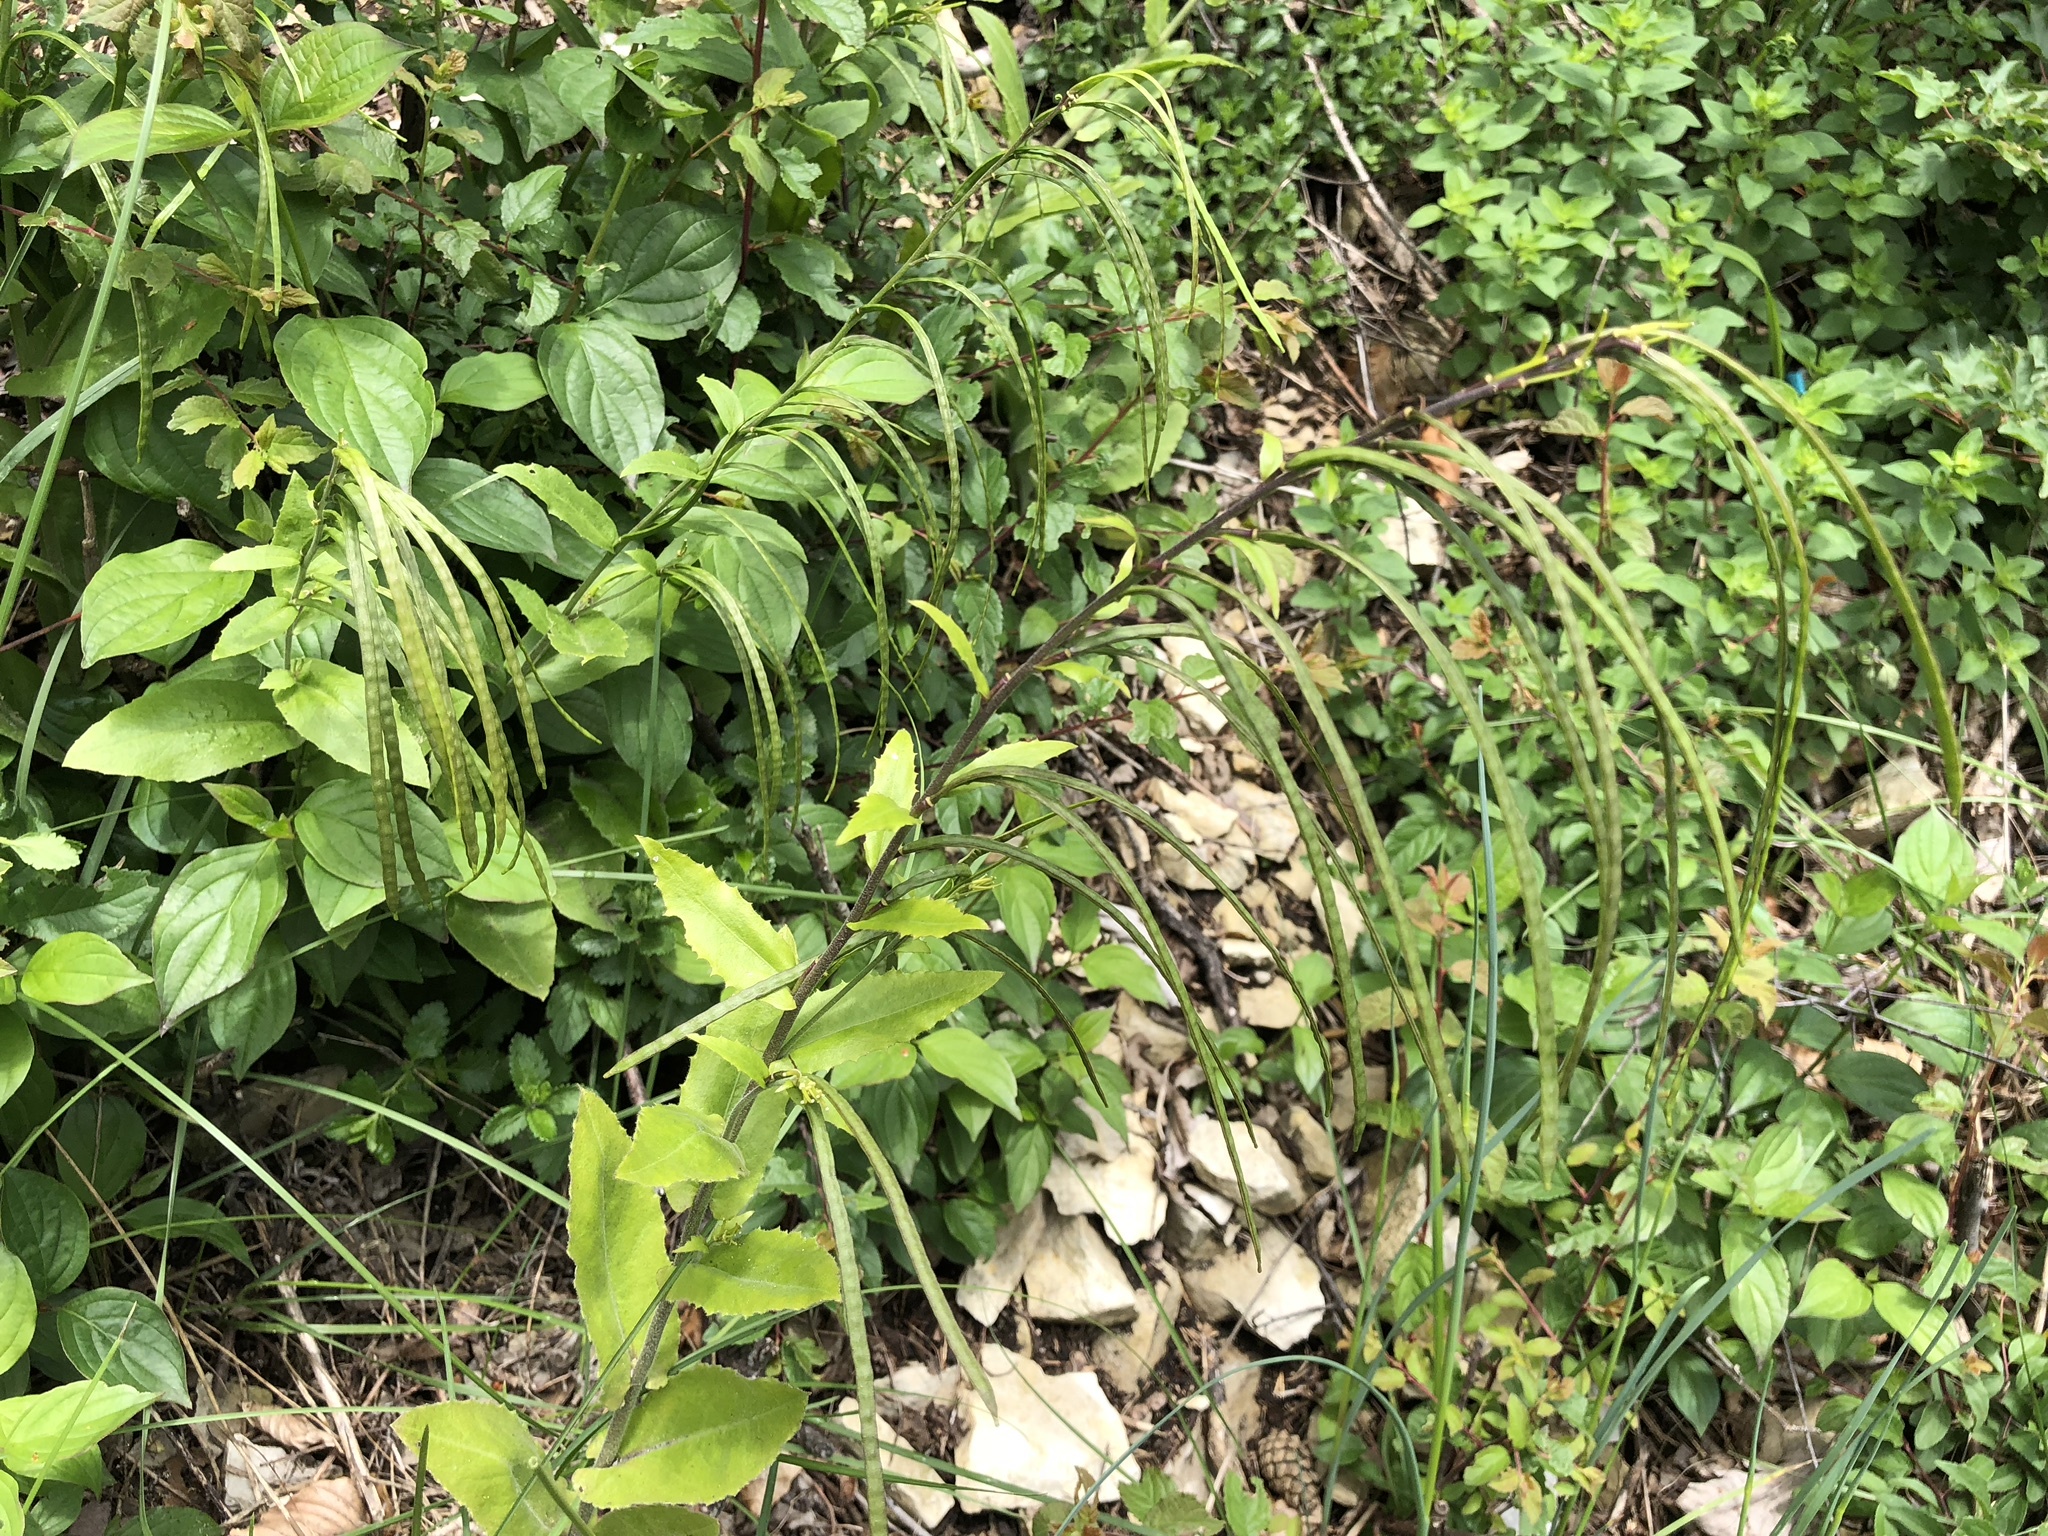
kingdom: Plantae
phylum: Tracheophyta
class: Magnoliopsida
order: Brassicales
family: Brassicaceae
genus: Pseudoturritis
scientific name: Pseudoturritis turrita
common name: Tower cress
